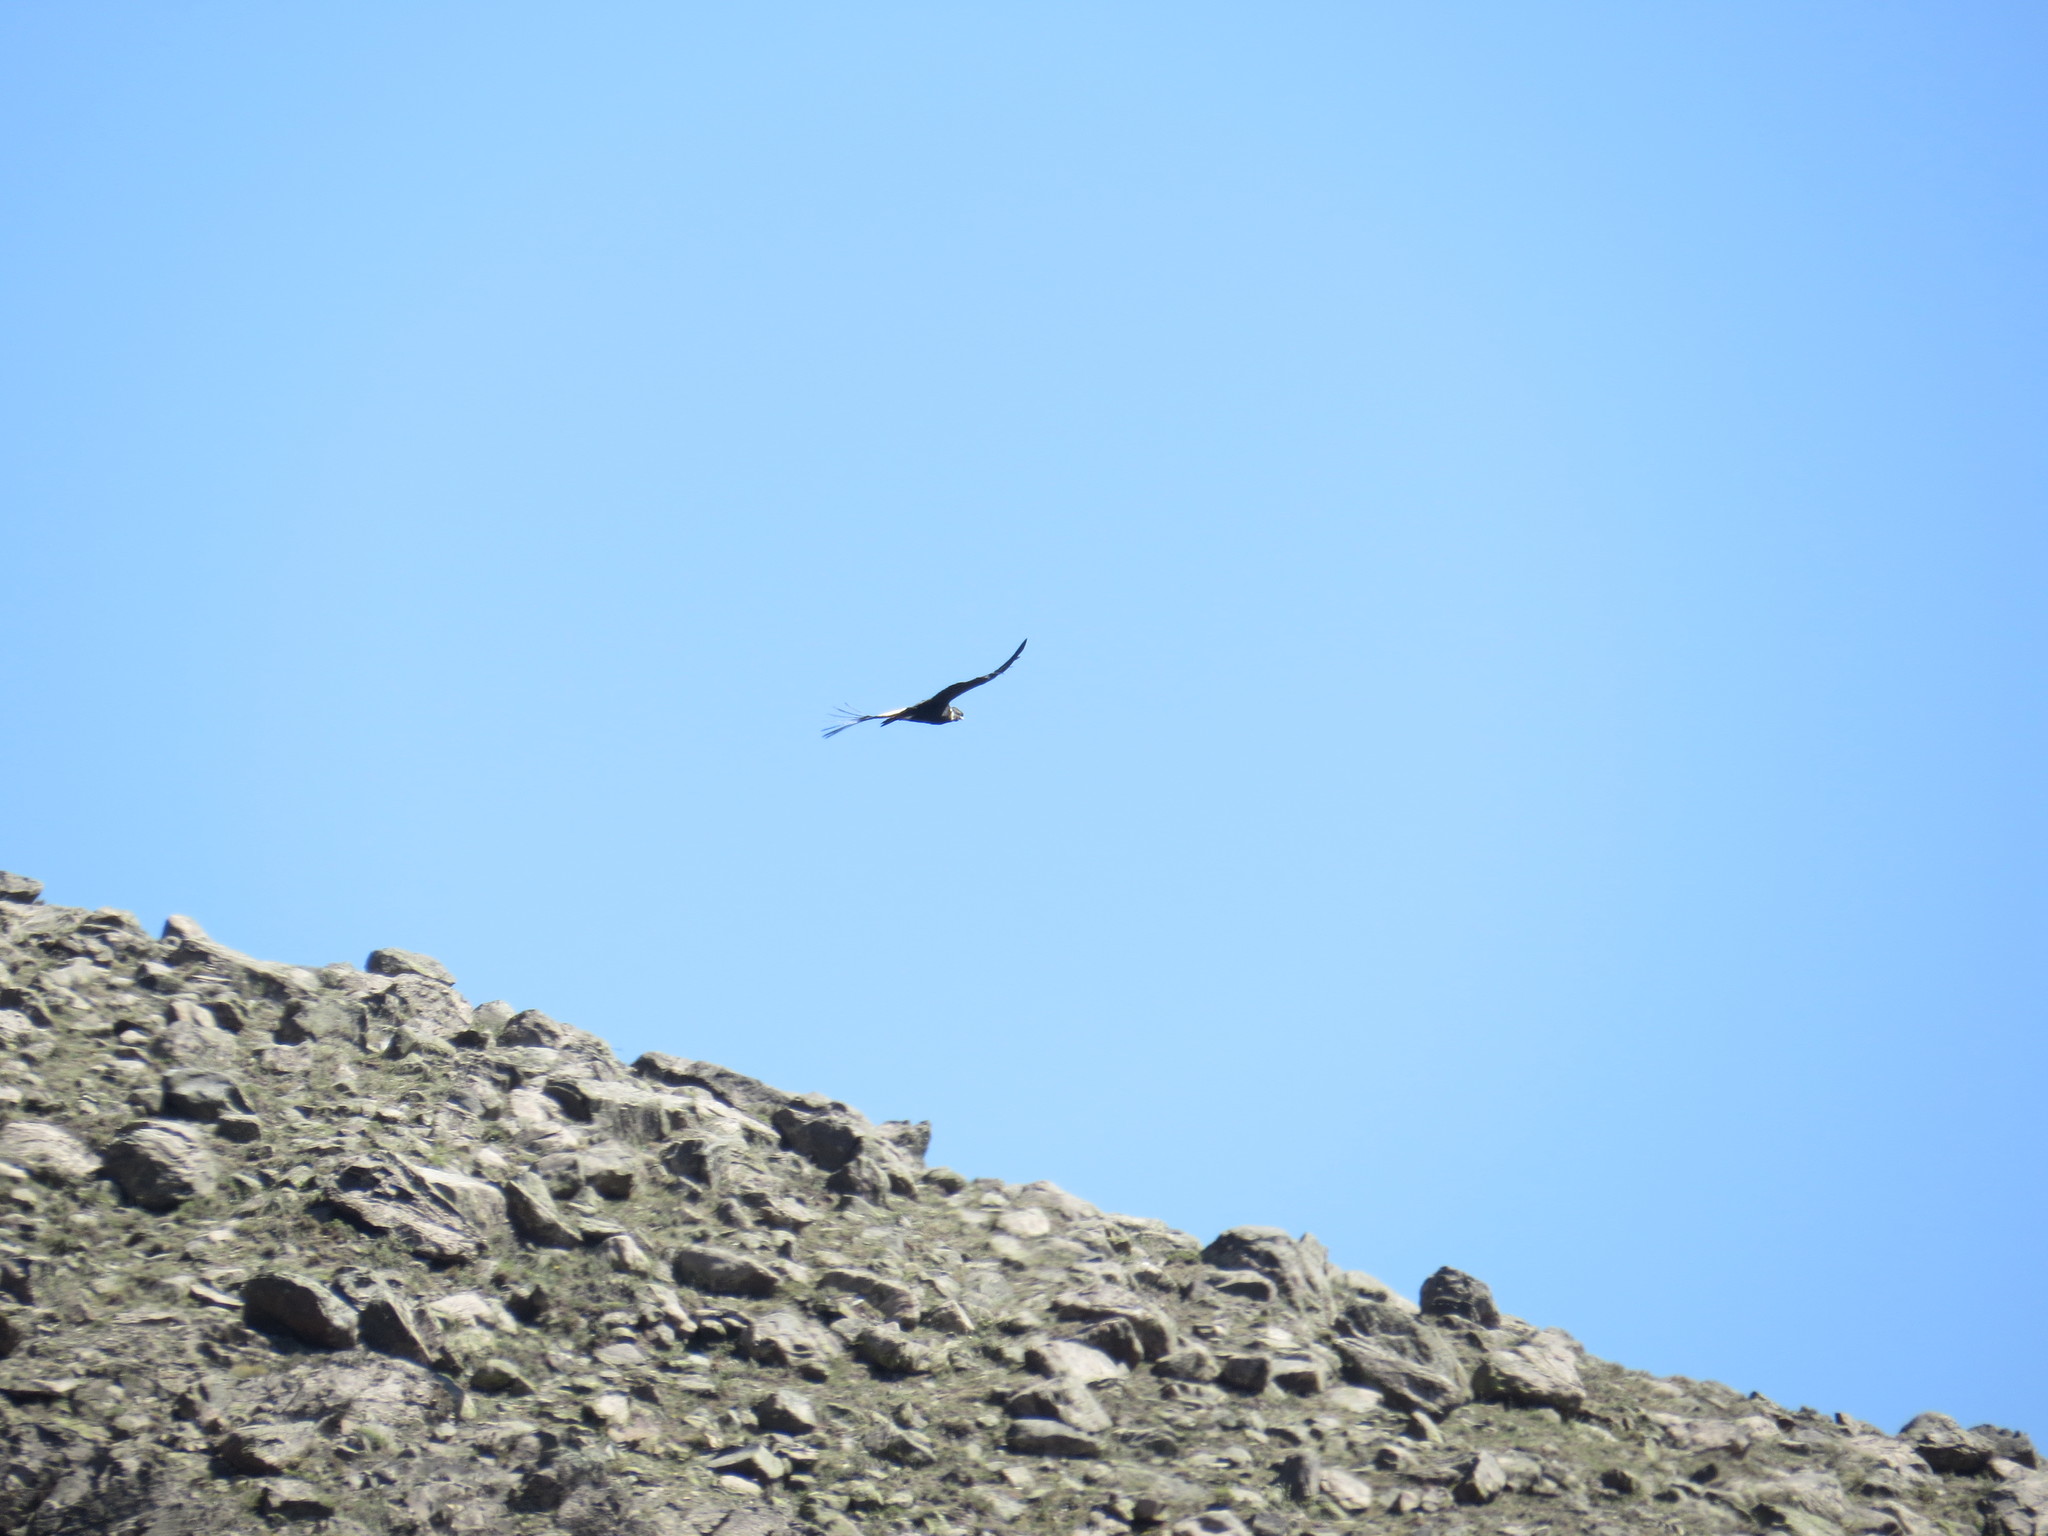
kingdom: Animalia
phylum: Chordata
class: Aves
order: Accipitriformes
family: Cathartidae
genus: Vultur
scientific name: Vultur gryphus
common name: Andean condor
